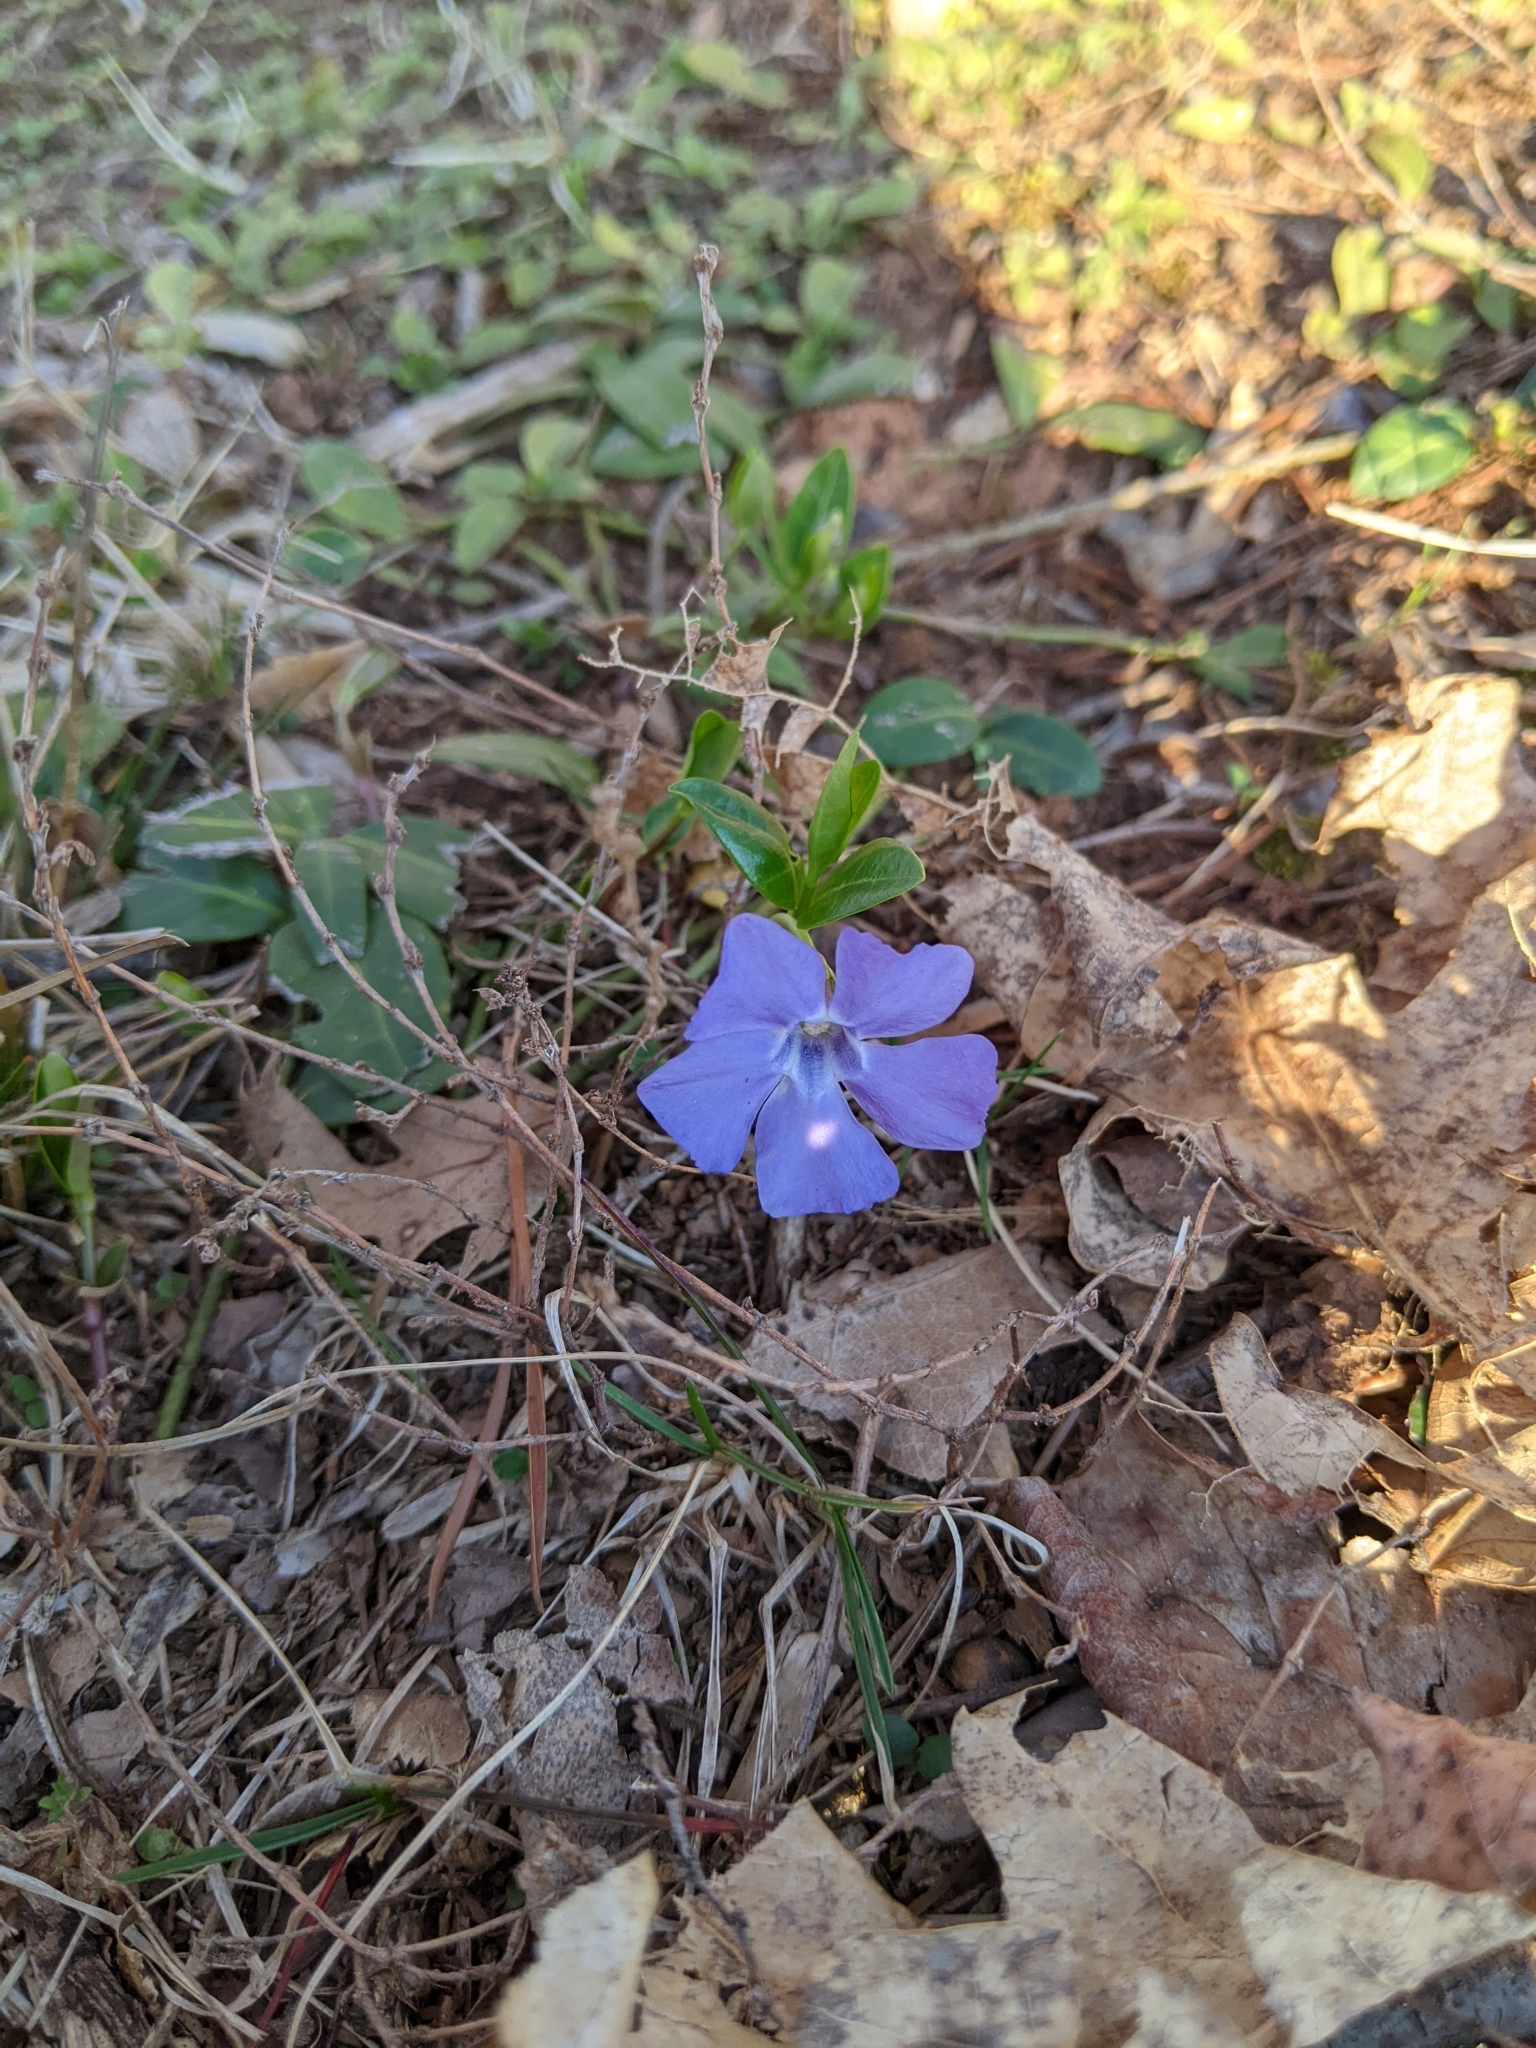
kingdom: Plantae
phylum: Tracheophyta
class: Magnoliopsida
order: Gentianales
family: Apocynaceae
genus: Vinca
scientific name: Vinca minor
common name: Lesser periwinkle
